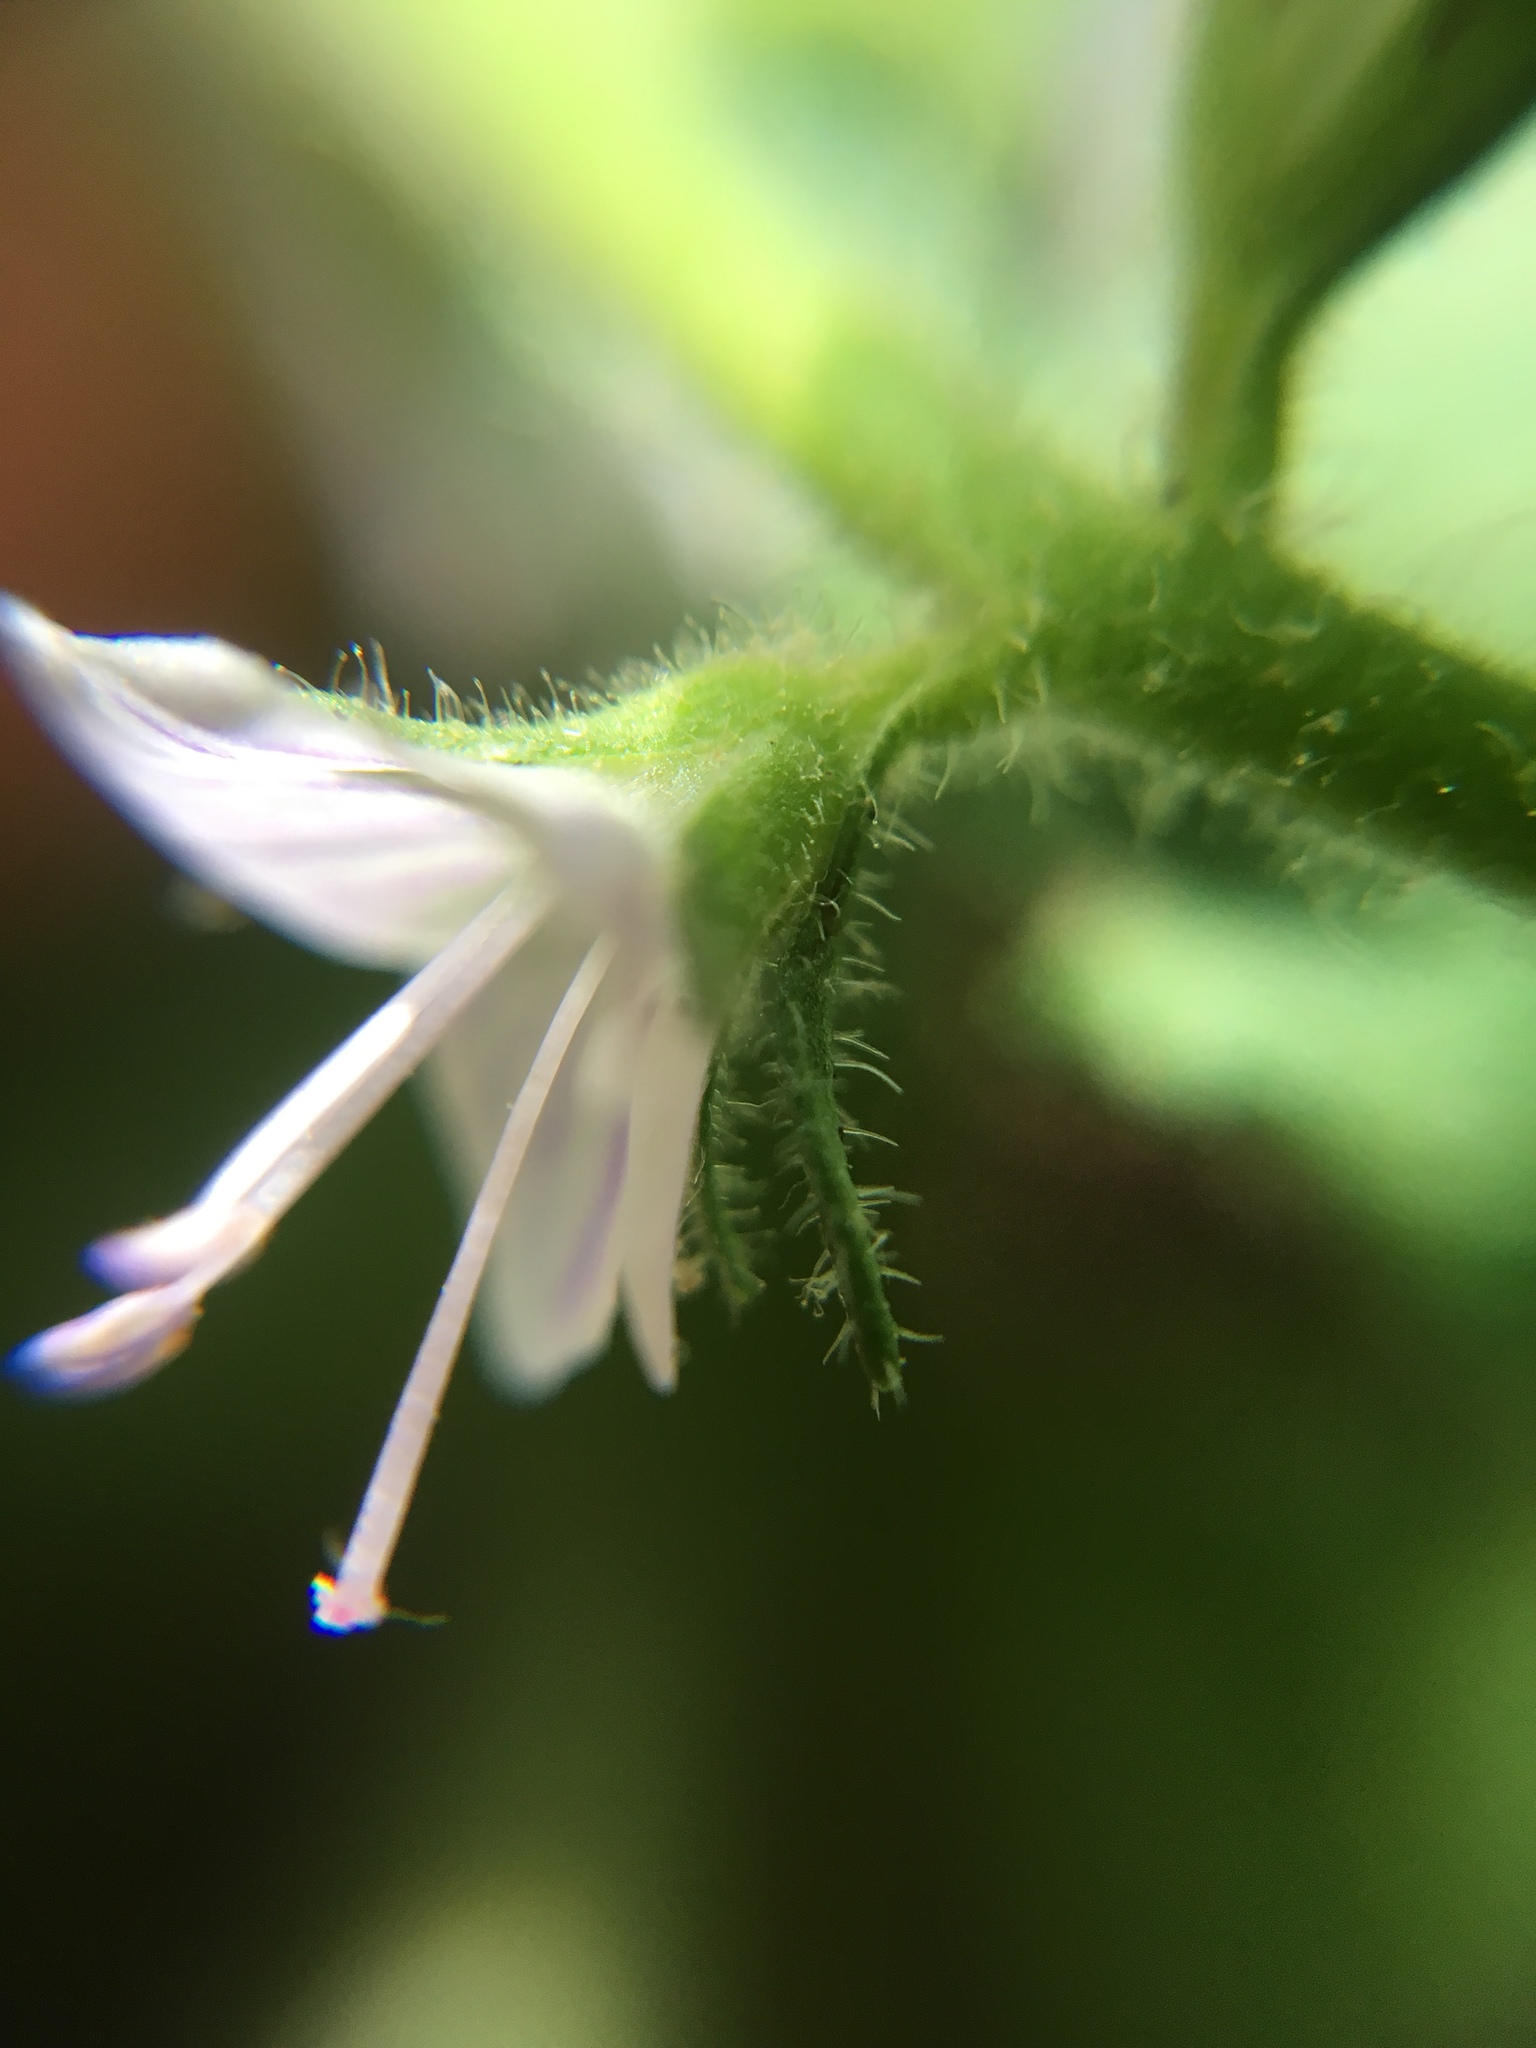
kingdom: Plantae
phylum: Tracheophyta
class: Magnoliopsida
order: Lamiales
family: Plantaginaceae
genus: Veronica
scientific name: Veronica officinalis
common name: Common speedwell
